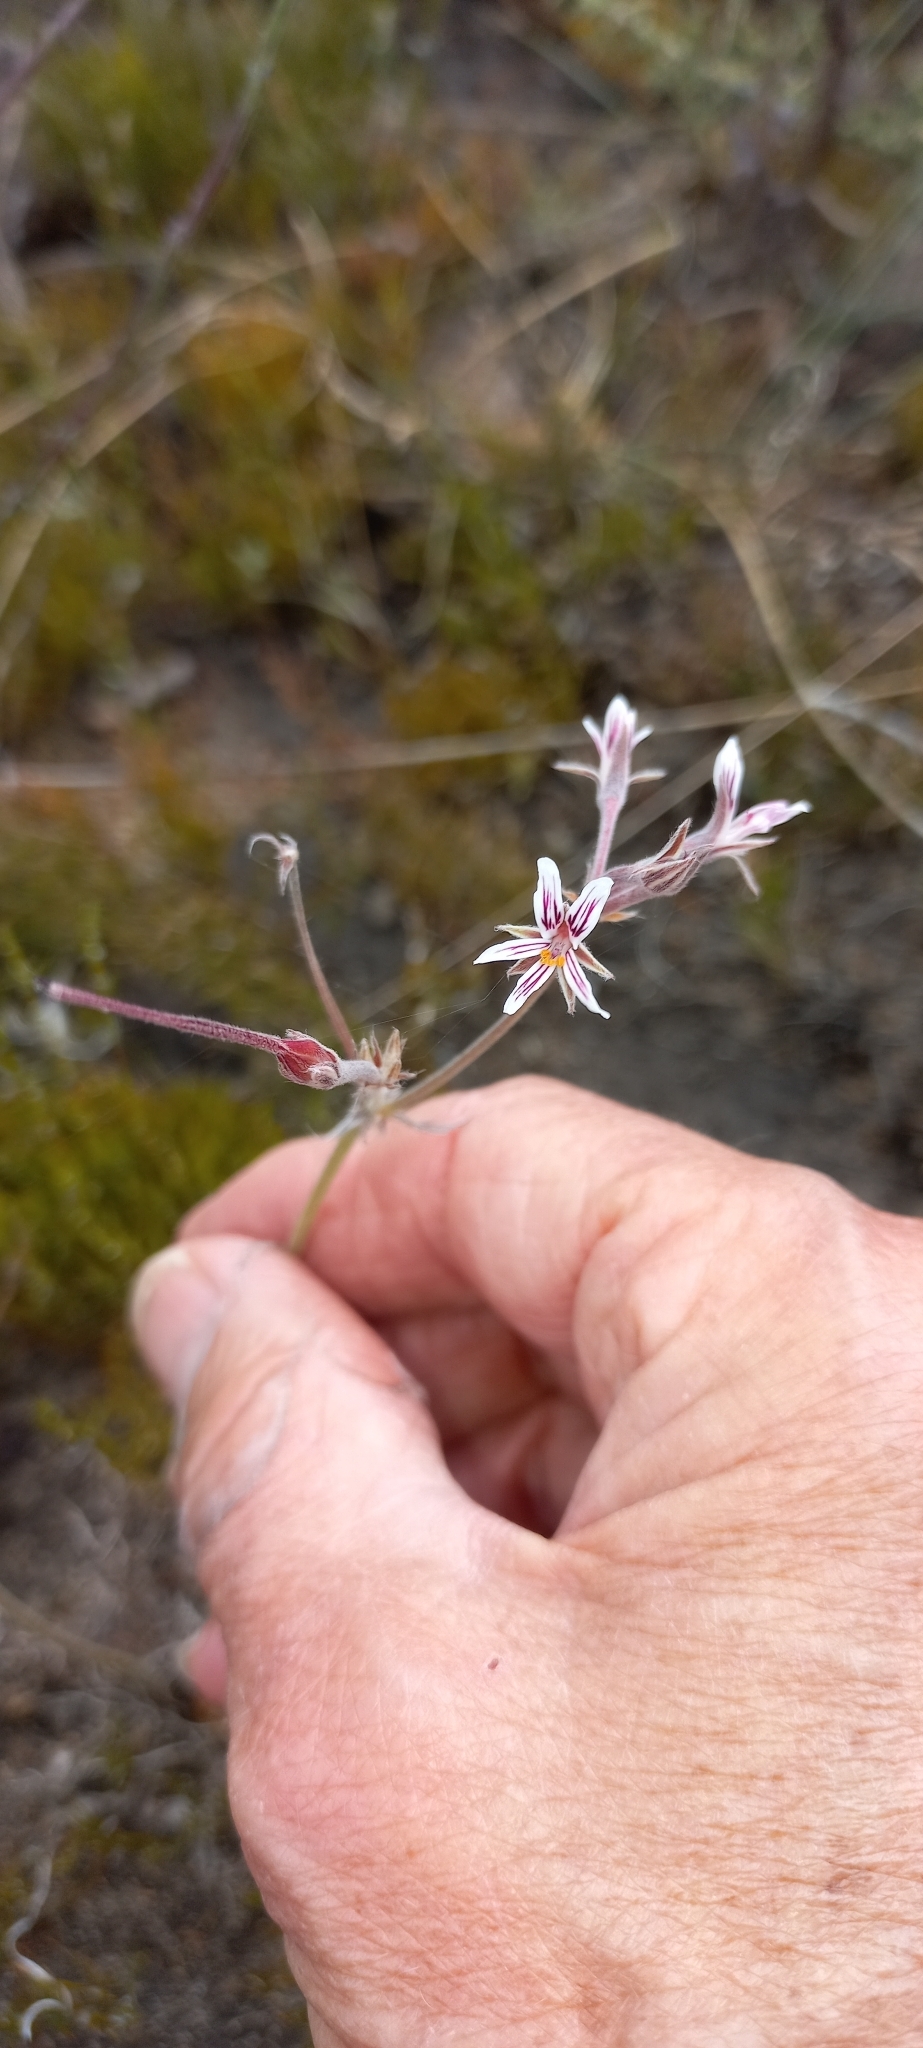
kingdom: Plantae
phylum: Tracheophyta
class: Magnoliopsida
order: Geraniales
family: Geraniaceae
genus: Pelargonium
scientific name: Pelargonium caledonicum
